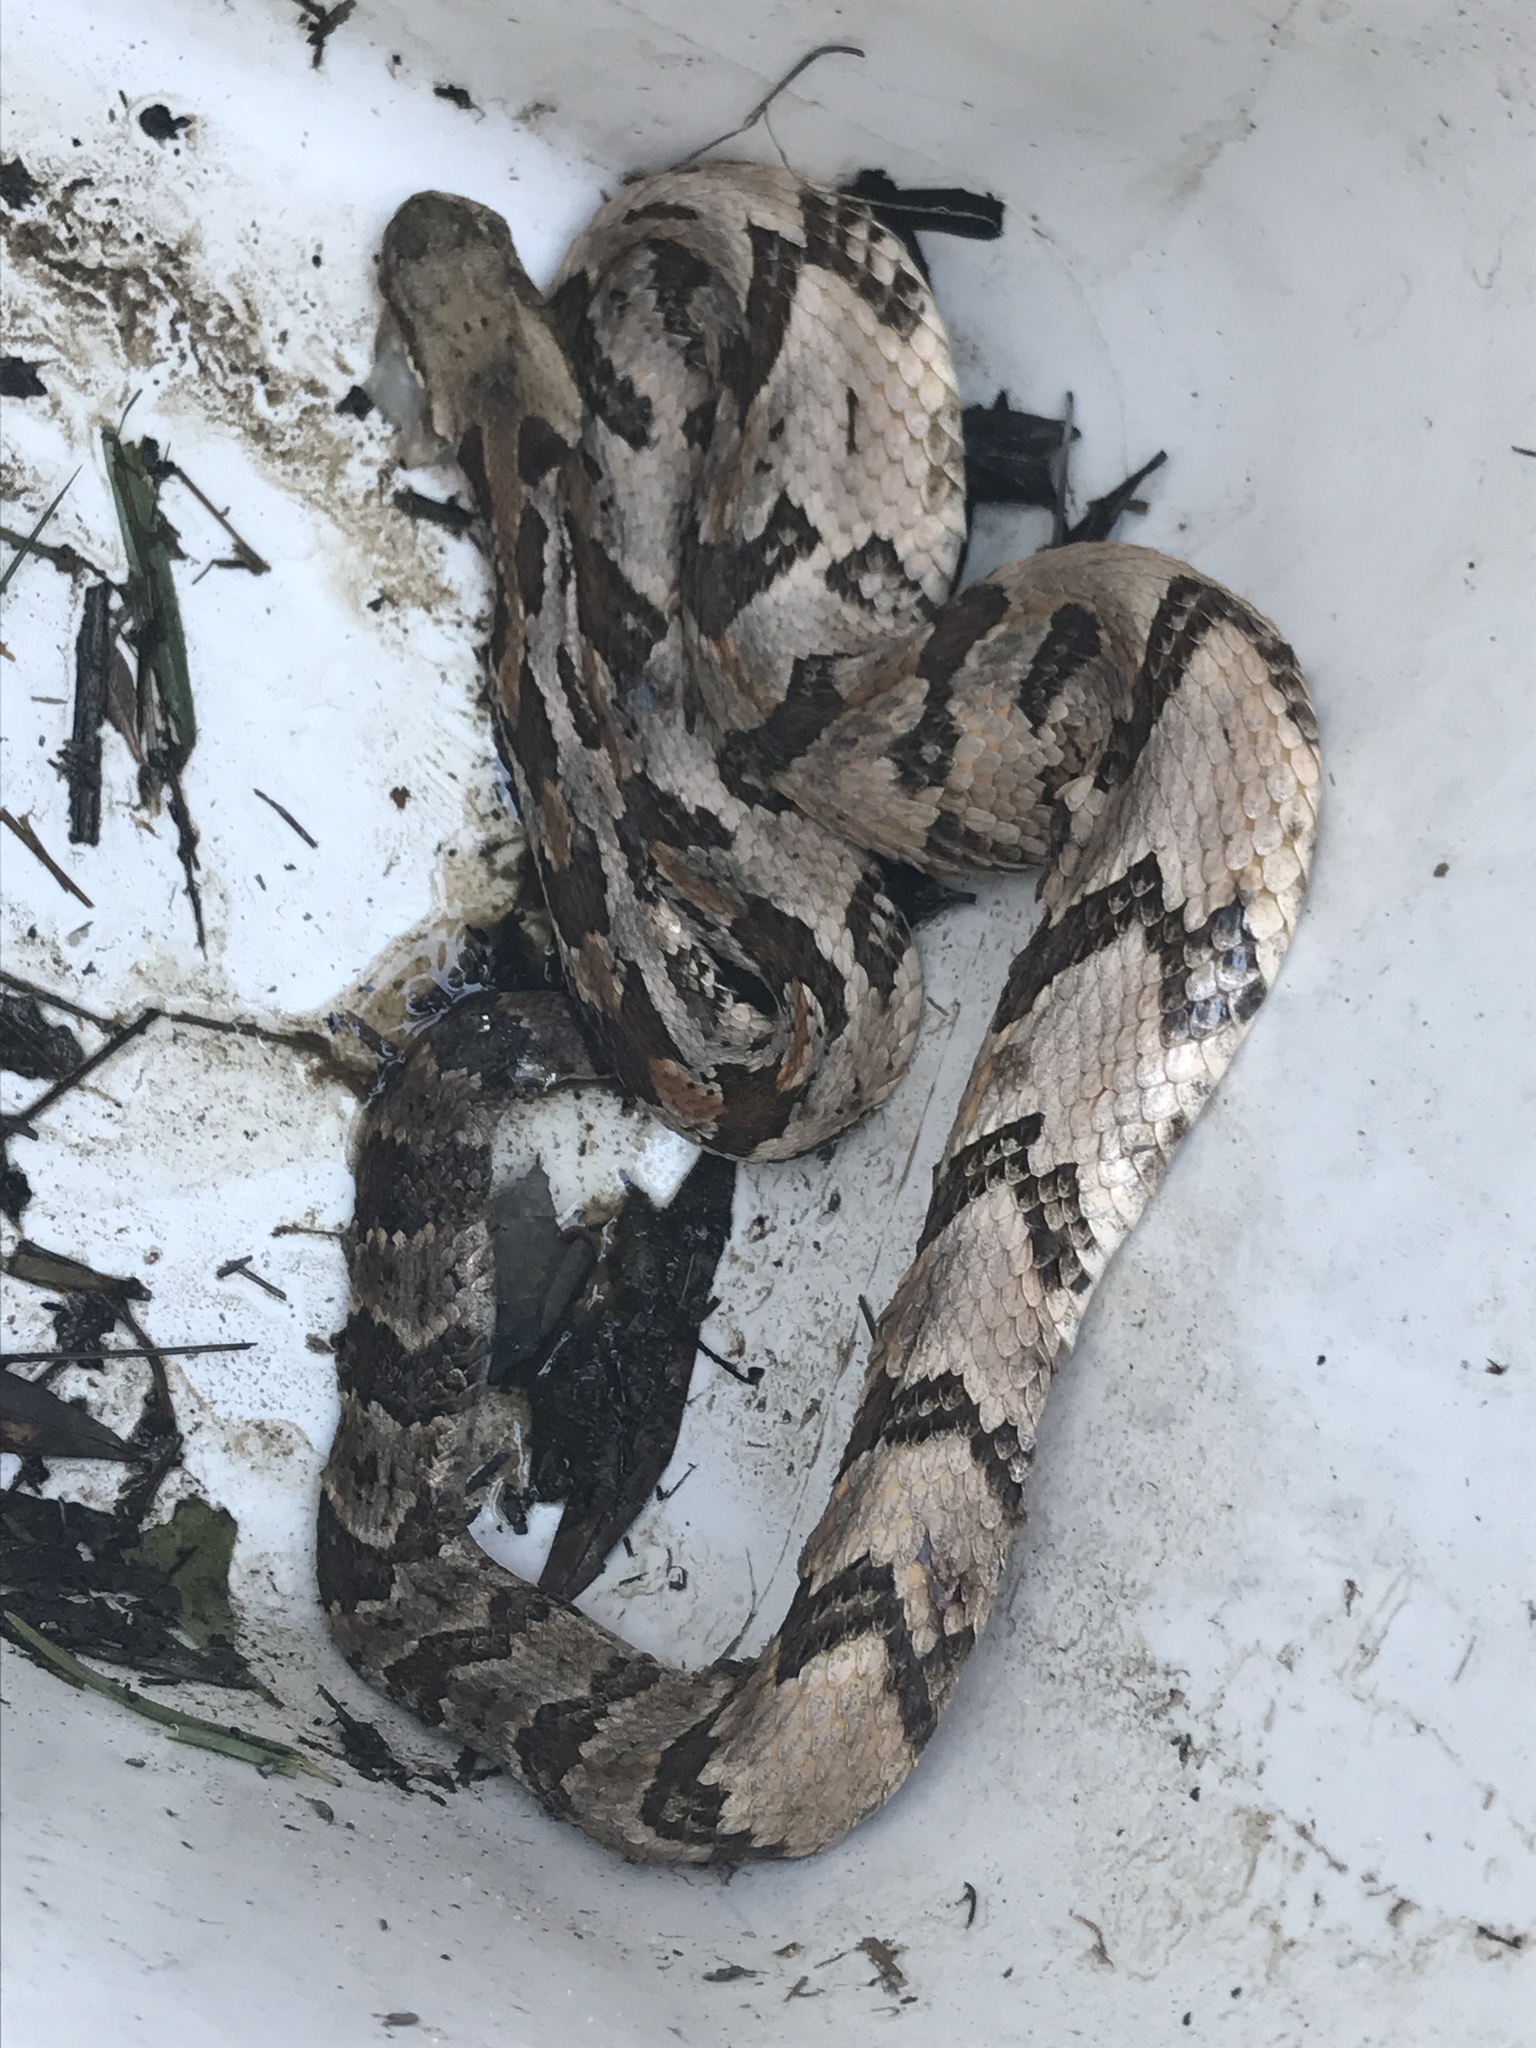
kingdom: Animalia
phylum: Chordata
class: Squamata
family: Viperidae
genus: Crotalus
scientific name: Crotalus horridus
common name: Timber rattlesnake
